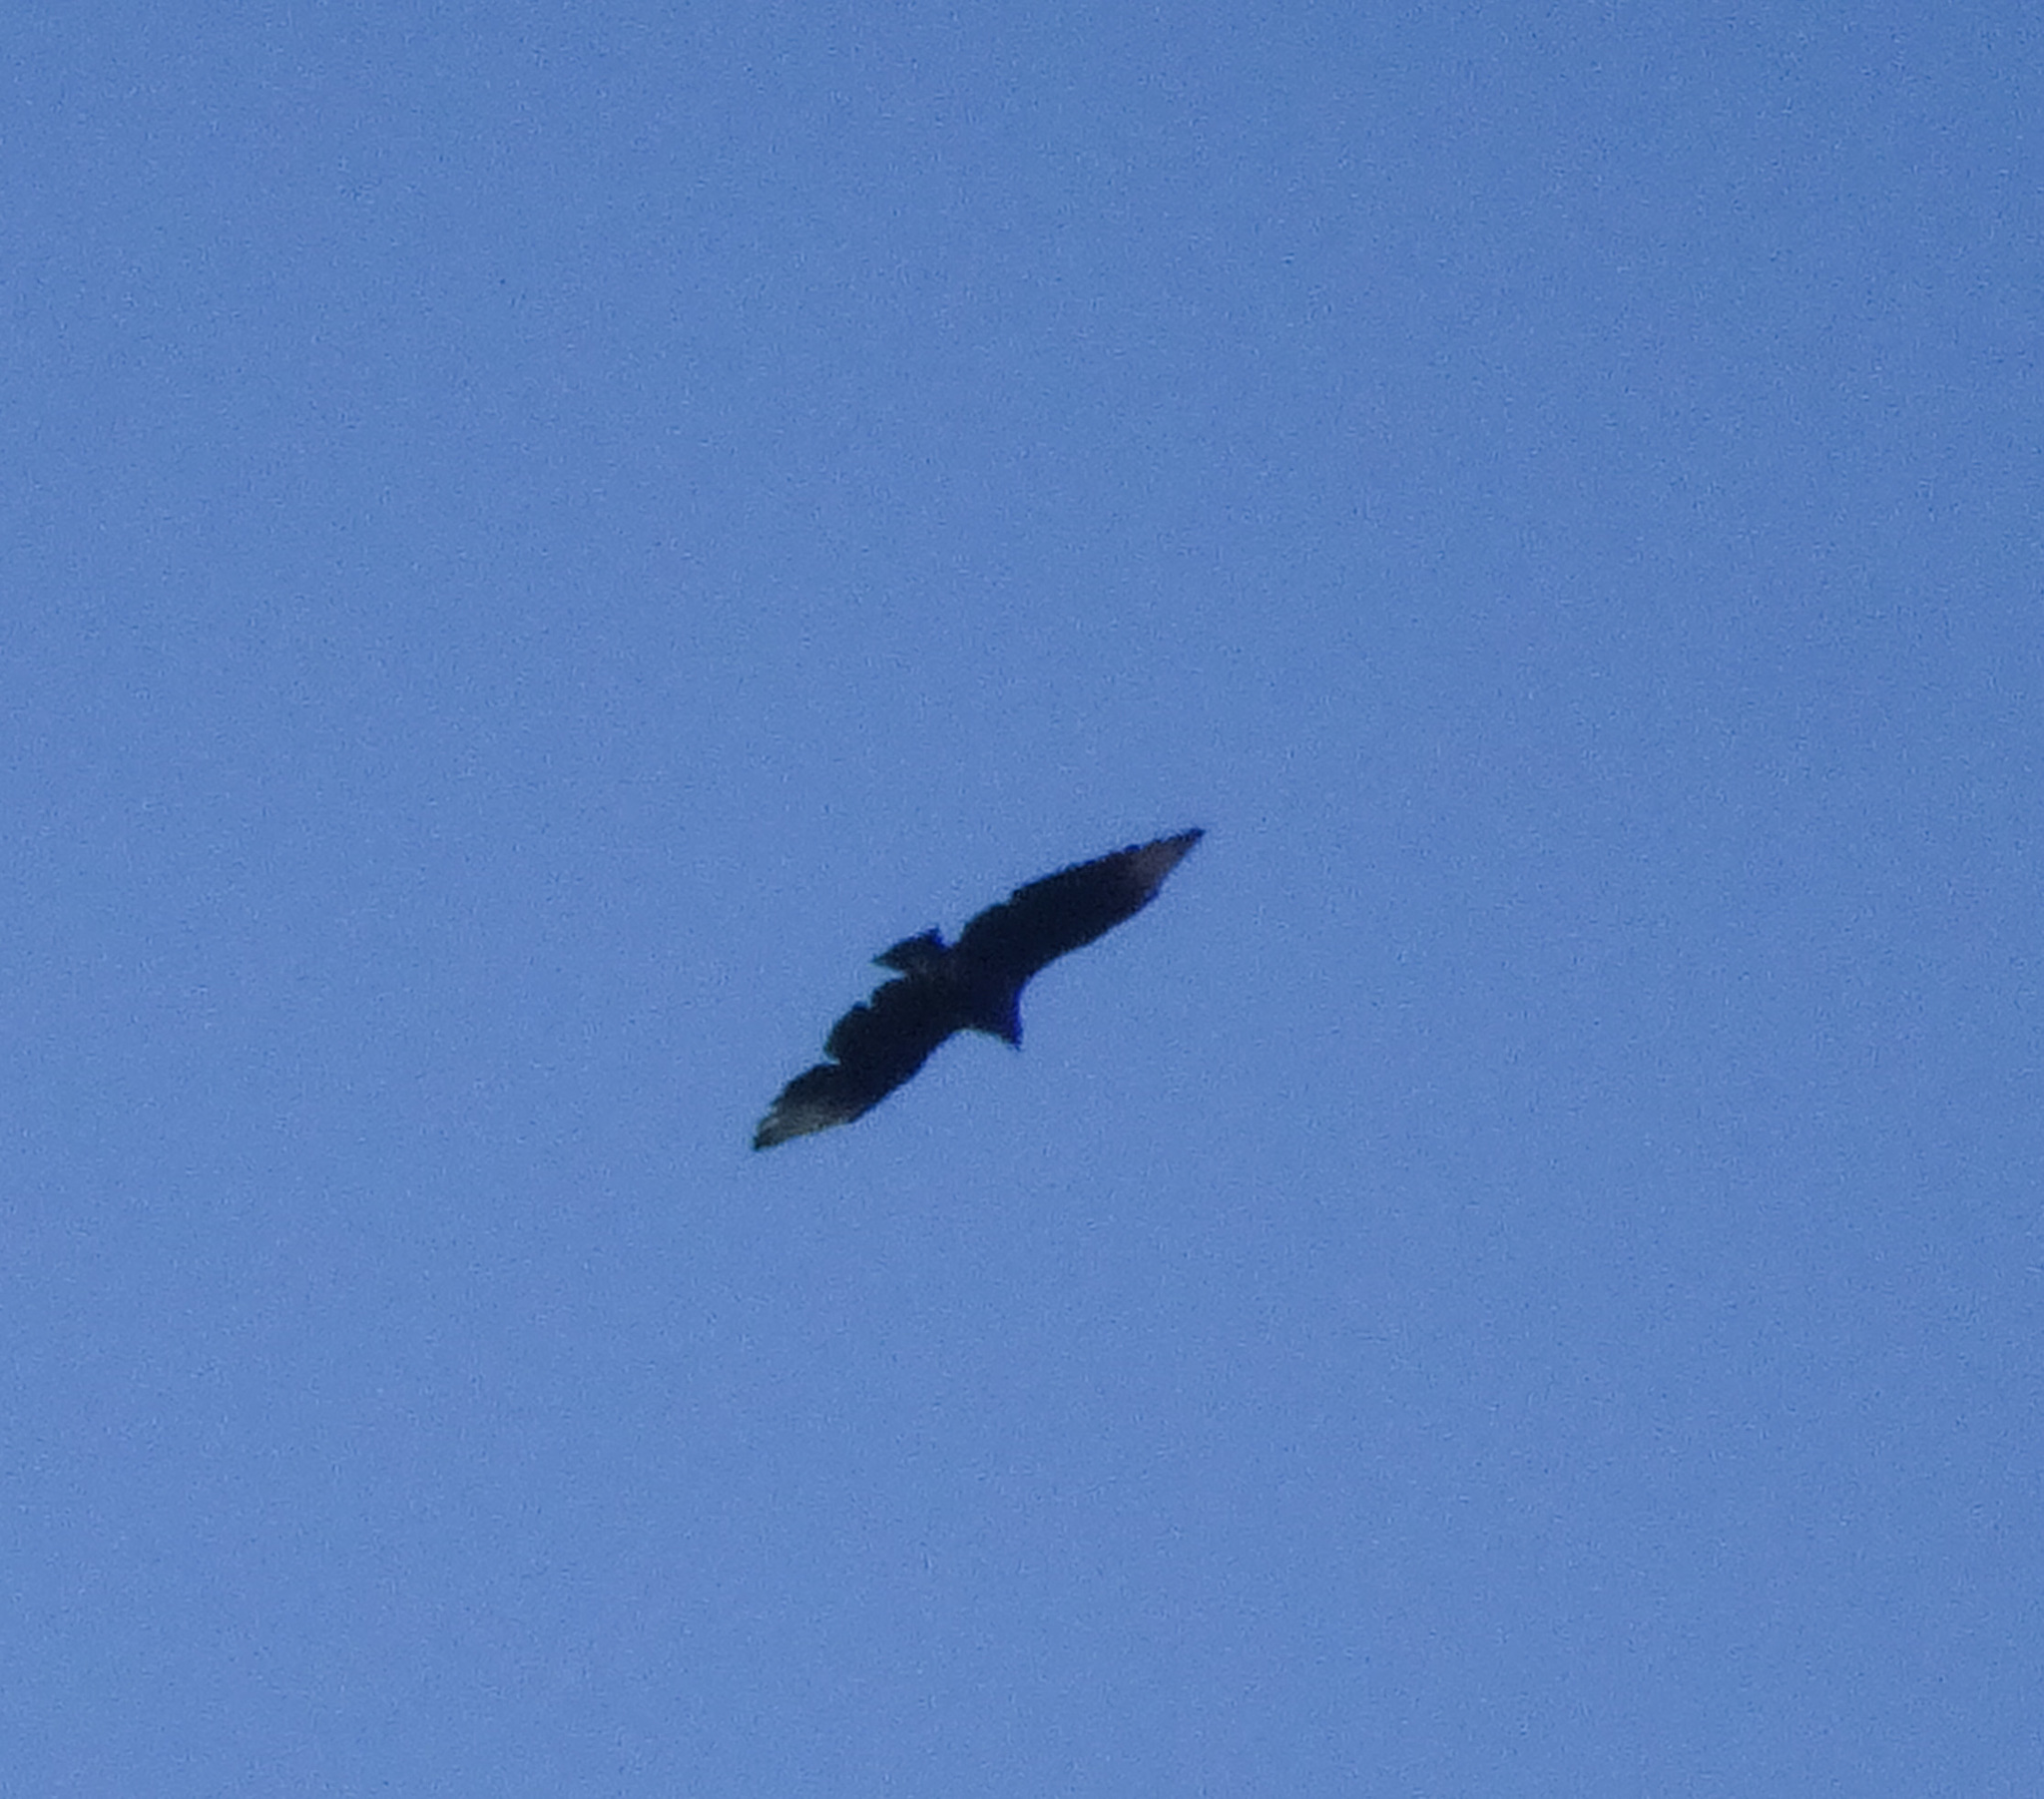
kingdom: Animalia
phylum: Chordata
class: Aves
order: Accipitriformes
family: Cathartidae
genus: Coragyps
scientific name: Coragyps atratus
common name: Black vulture
